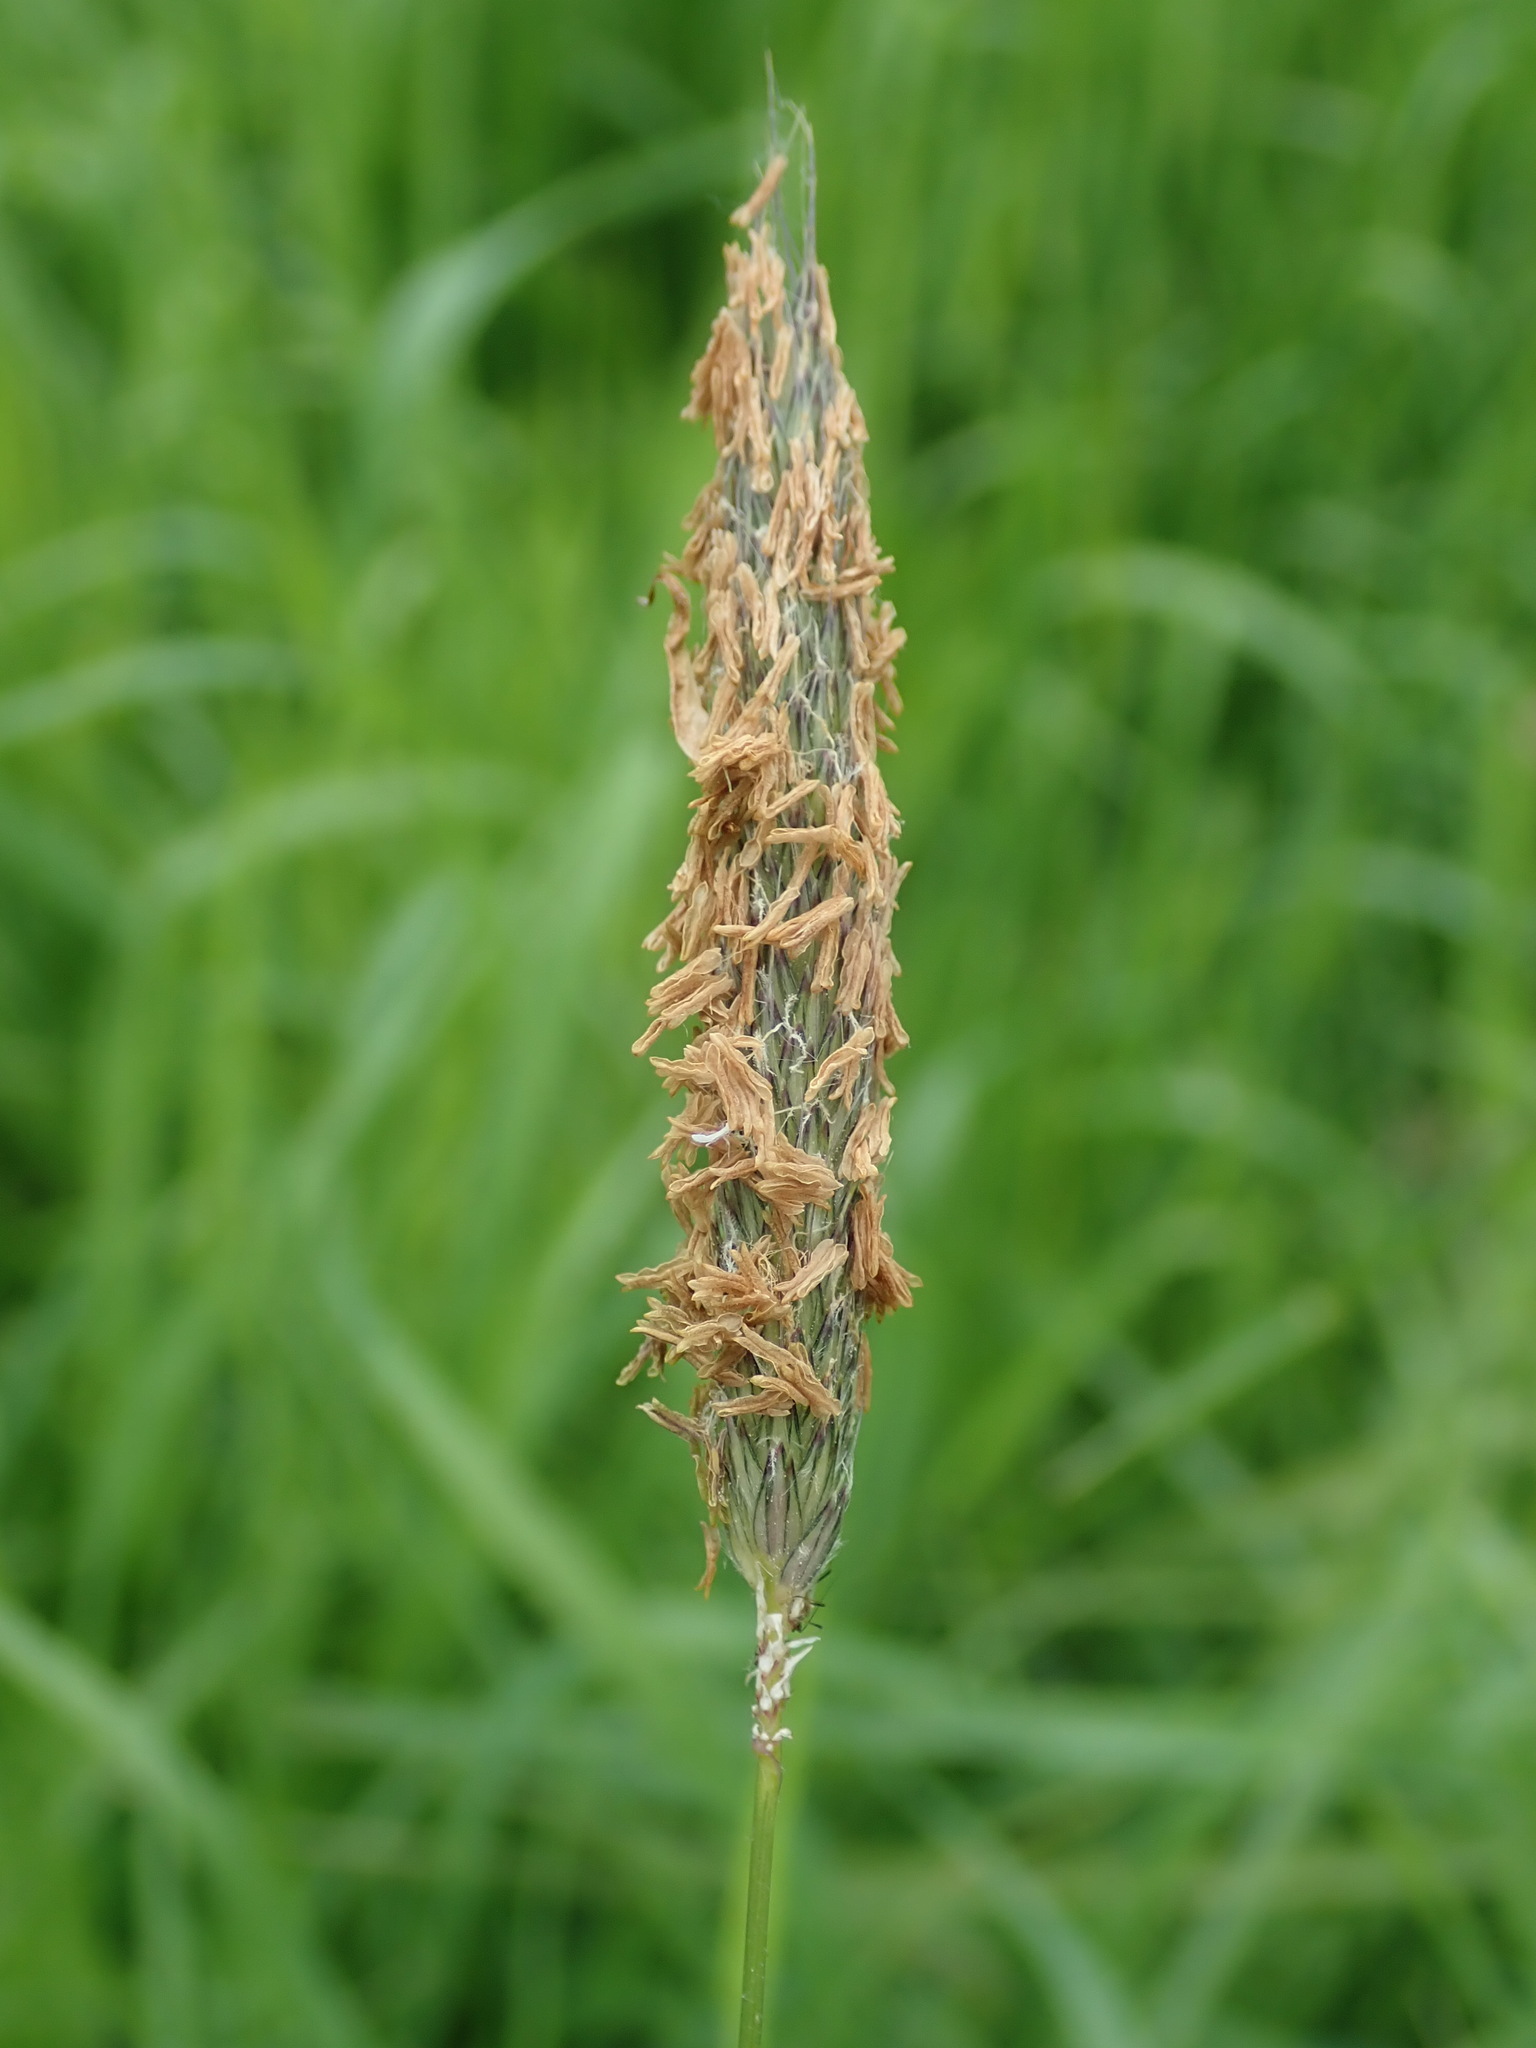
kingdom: Plantae
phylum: Tracheophyta
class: Liliopsida
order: Poales
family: Poaceae
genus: Alopecurus
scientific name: Alopecurus pratensis
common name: Meadow foxtail
